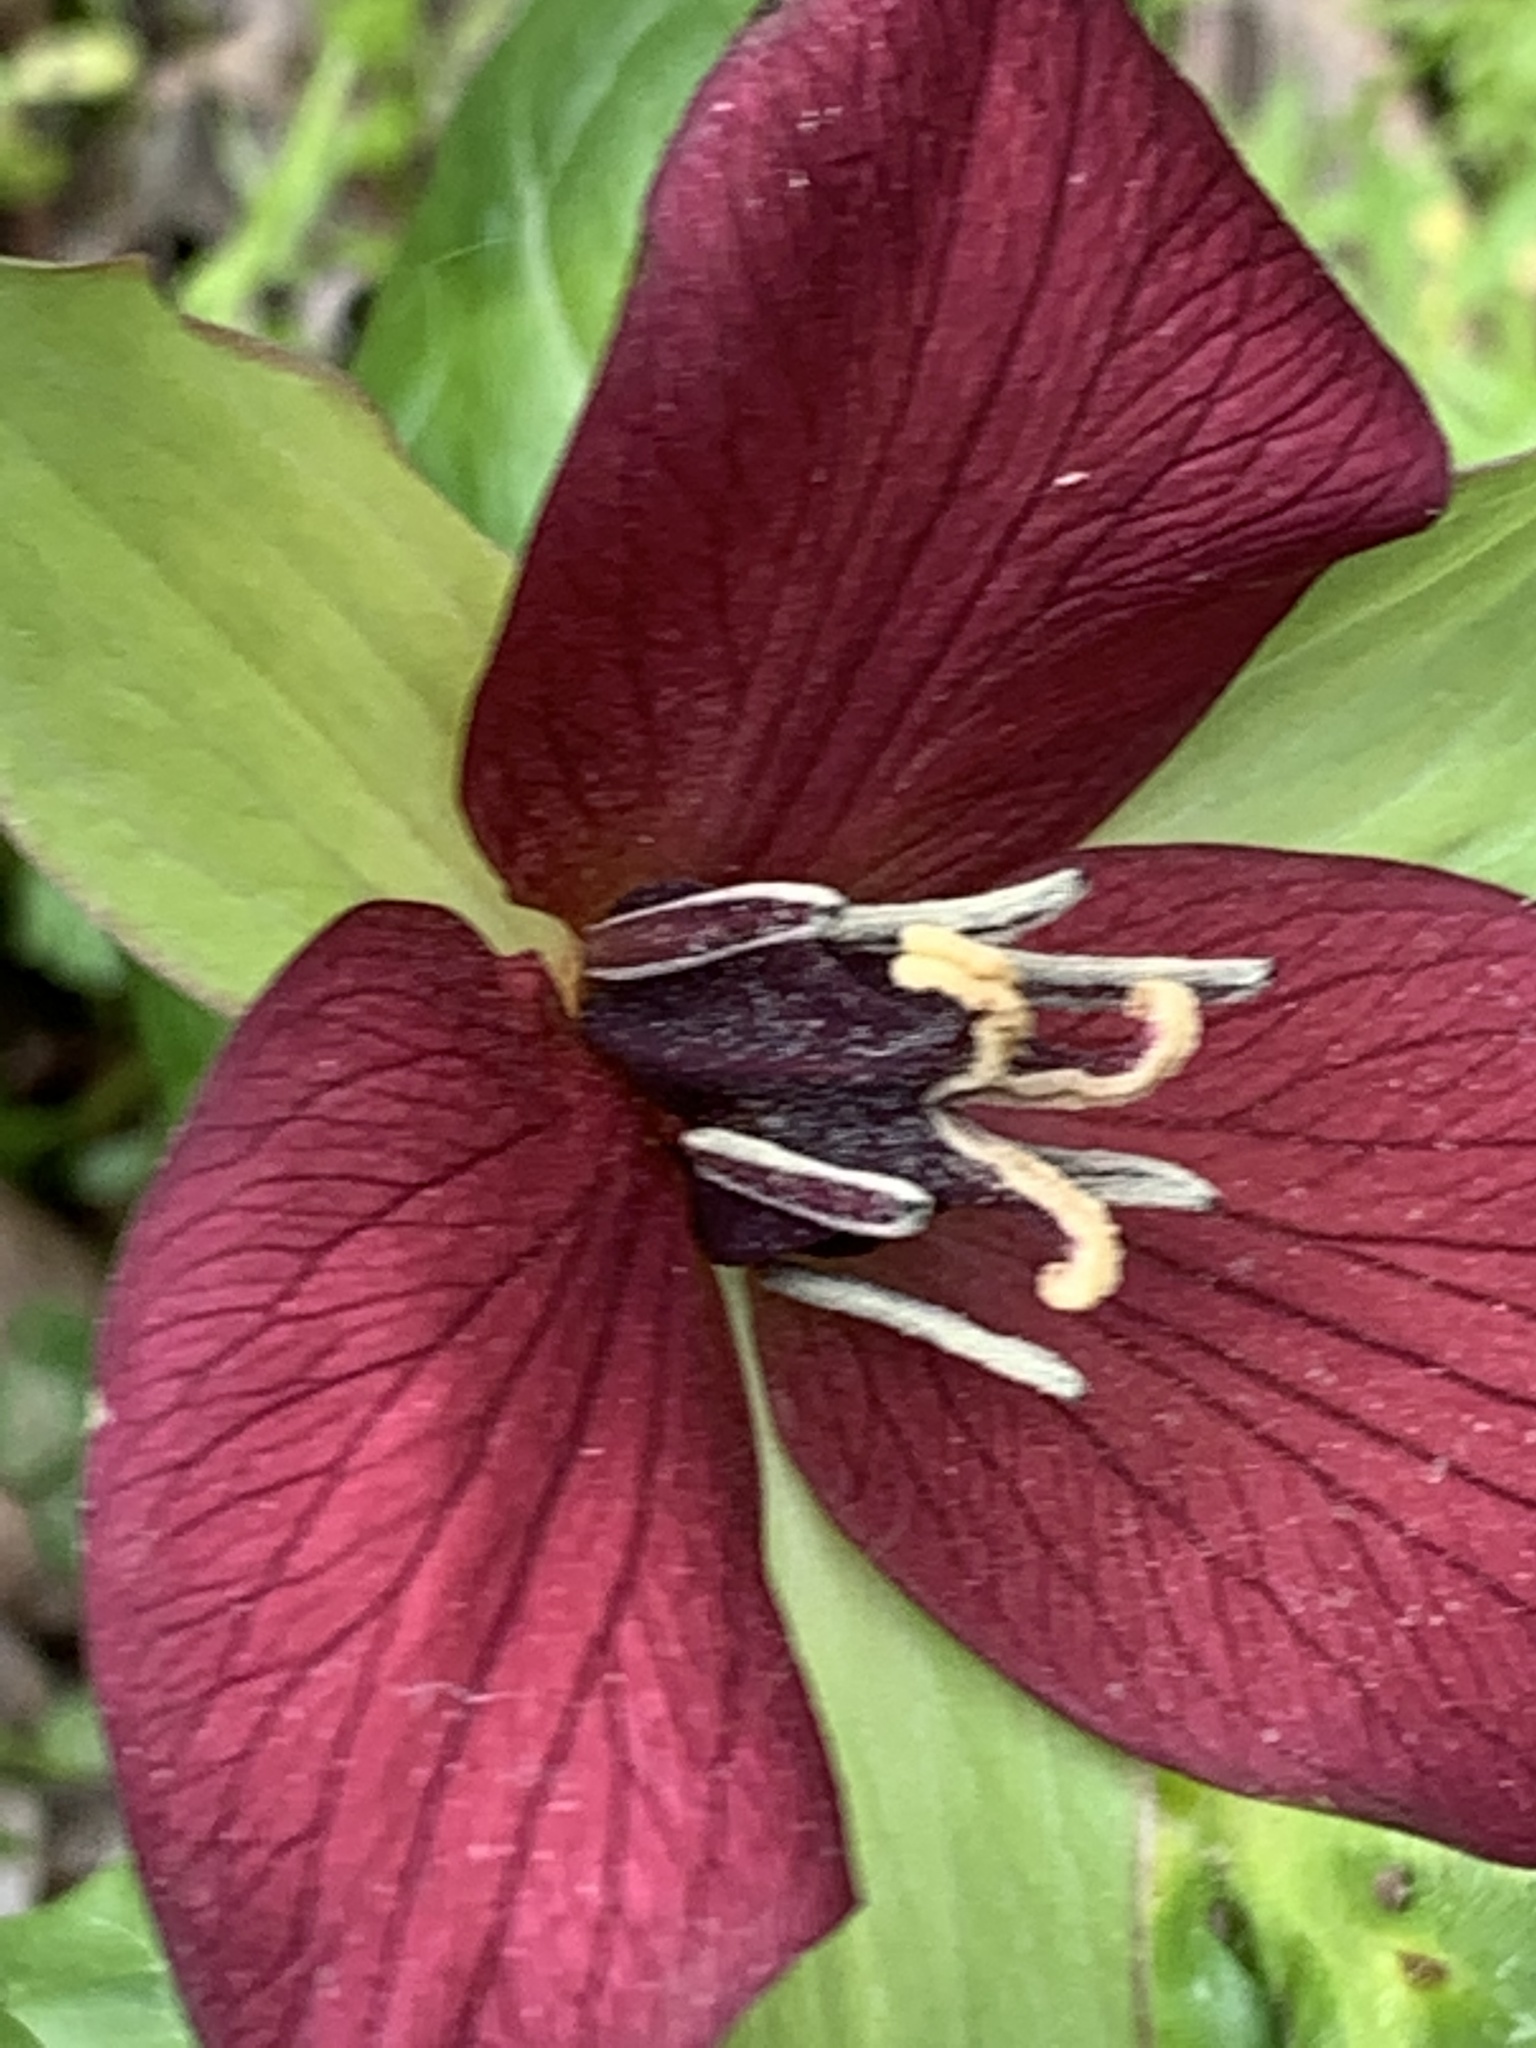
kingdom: Plantae
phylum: Tracheophyta
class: Liliopsida
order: Liliales
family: Melanthiaceae
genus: Trillium
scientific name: Trillium erectum
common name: Purple trillium
